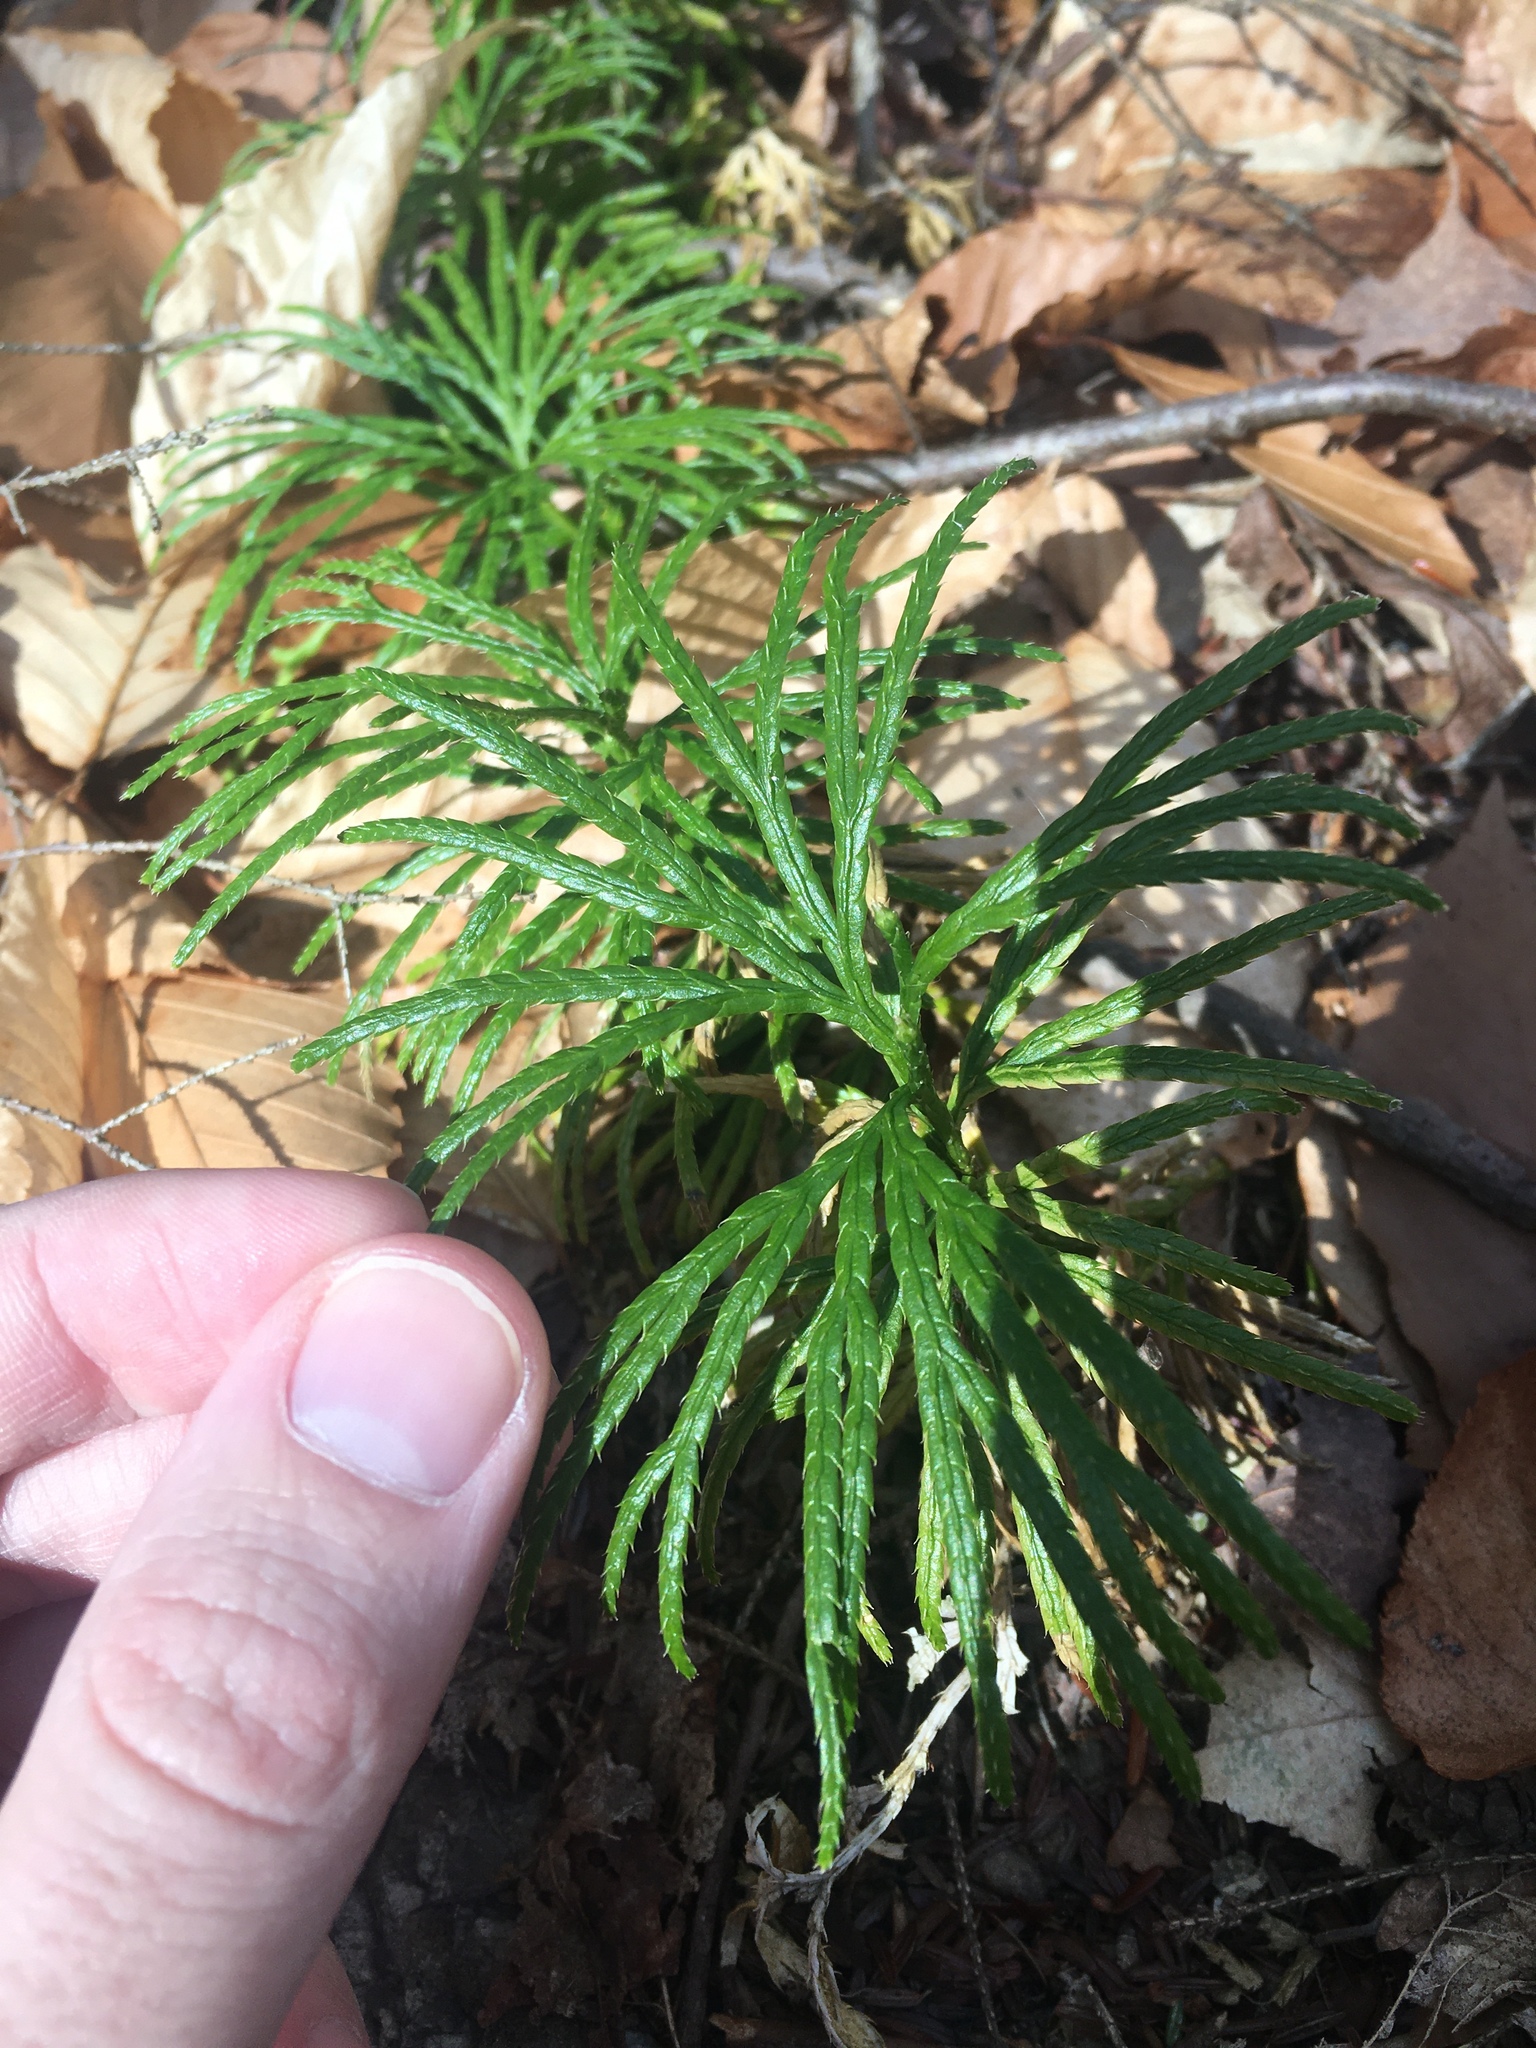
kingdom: Plantae
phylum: Tracheophyta
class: Lycopodiopsida
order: Lycopodiales
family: Lycopodiaceae
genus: Diphasiastrum
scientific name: Diphasiastrum digitatum
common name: Southern running-pine
